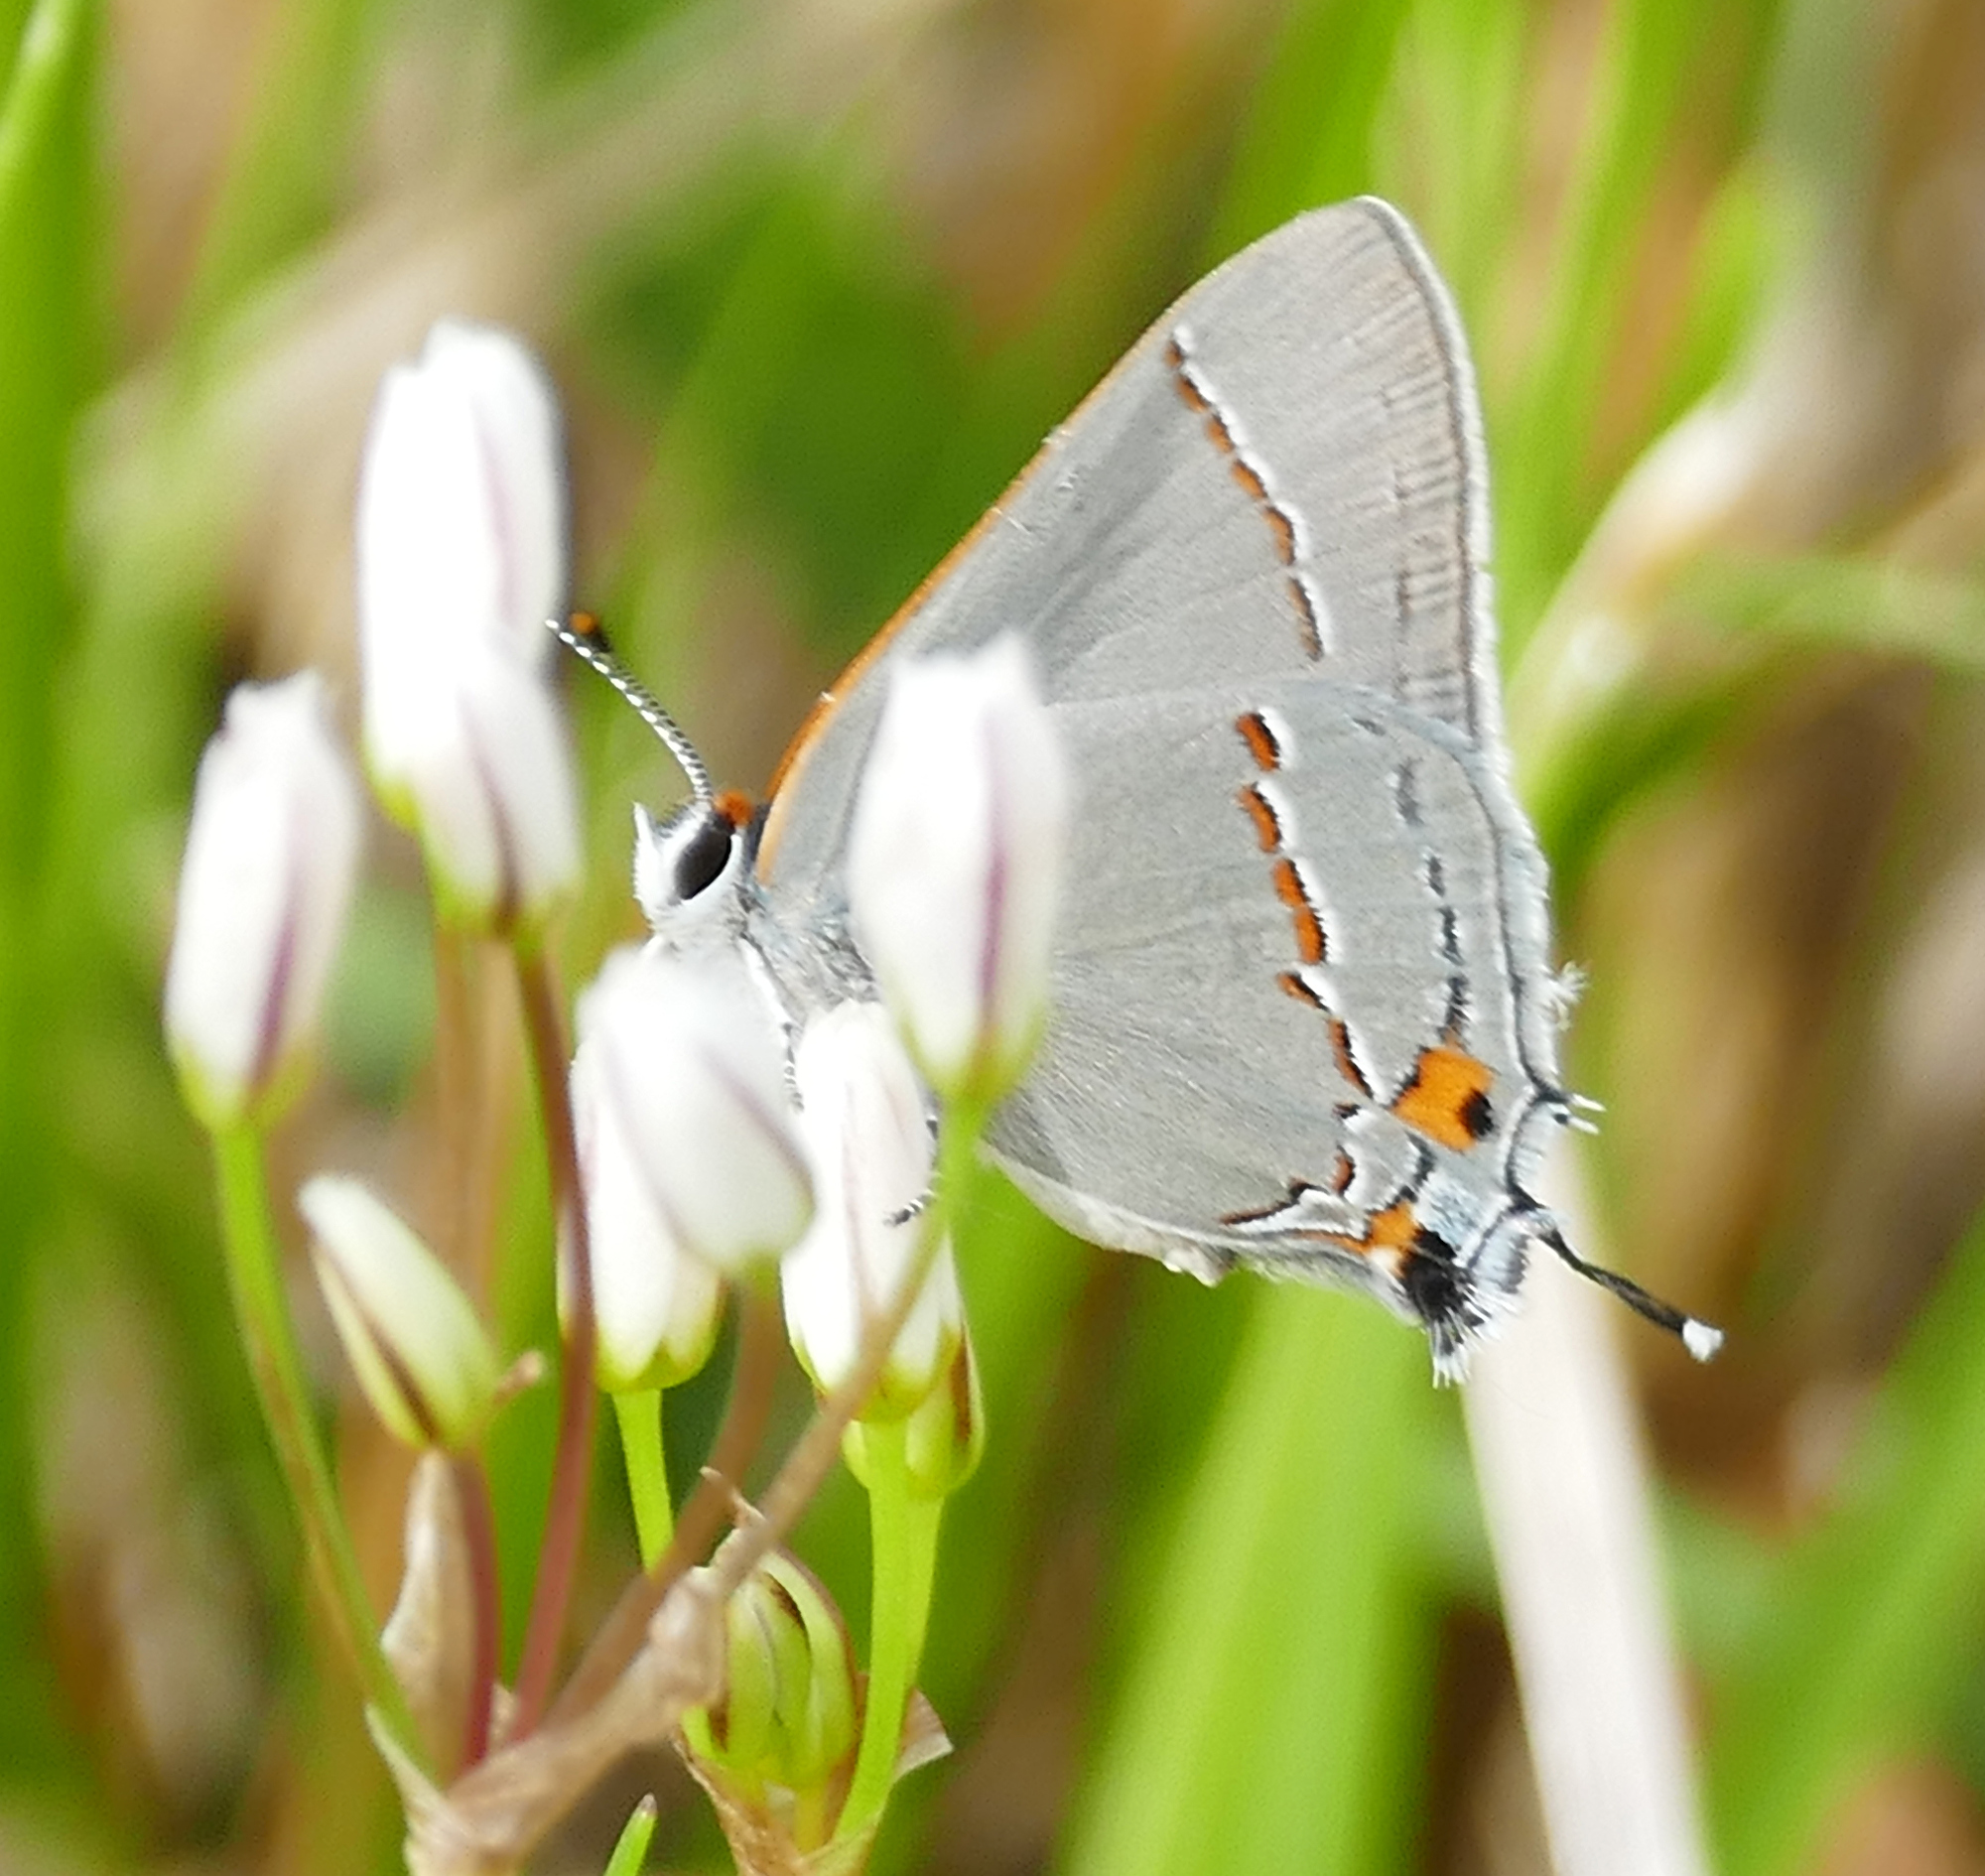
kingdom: Animalia
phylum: Arthropoda
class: Insecta
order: Lepidoptera
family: Lycaenidae
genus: Strymon
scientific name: Strymon melinus
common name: Gray hairstreak
